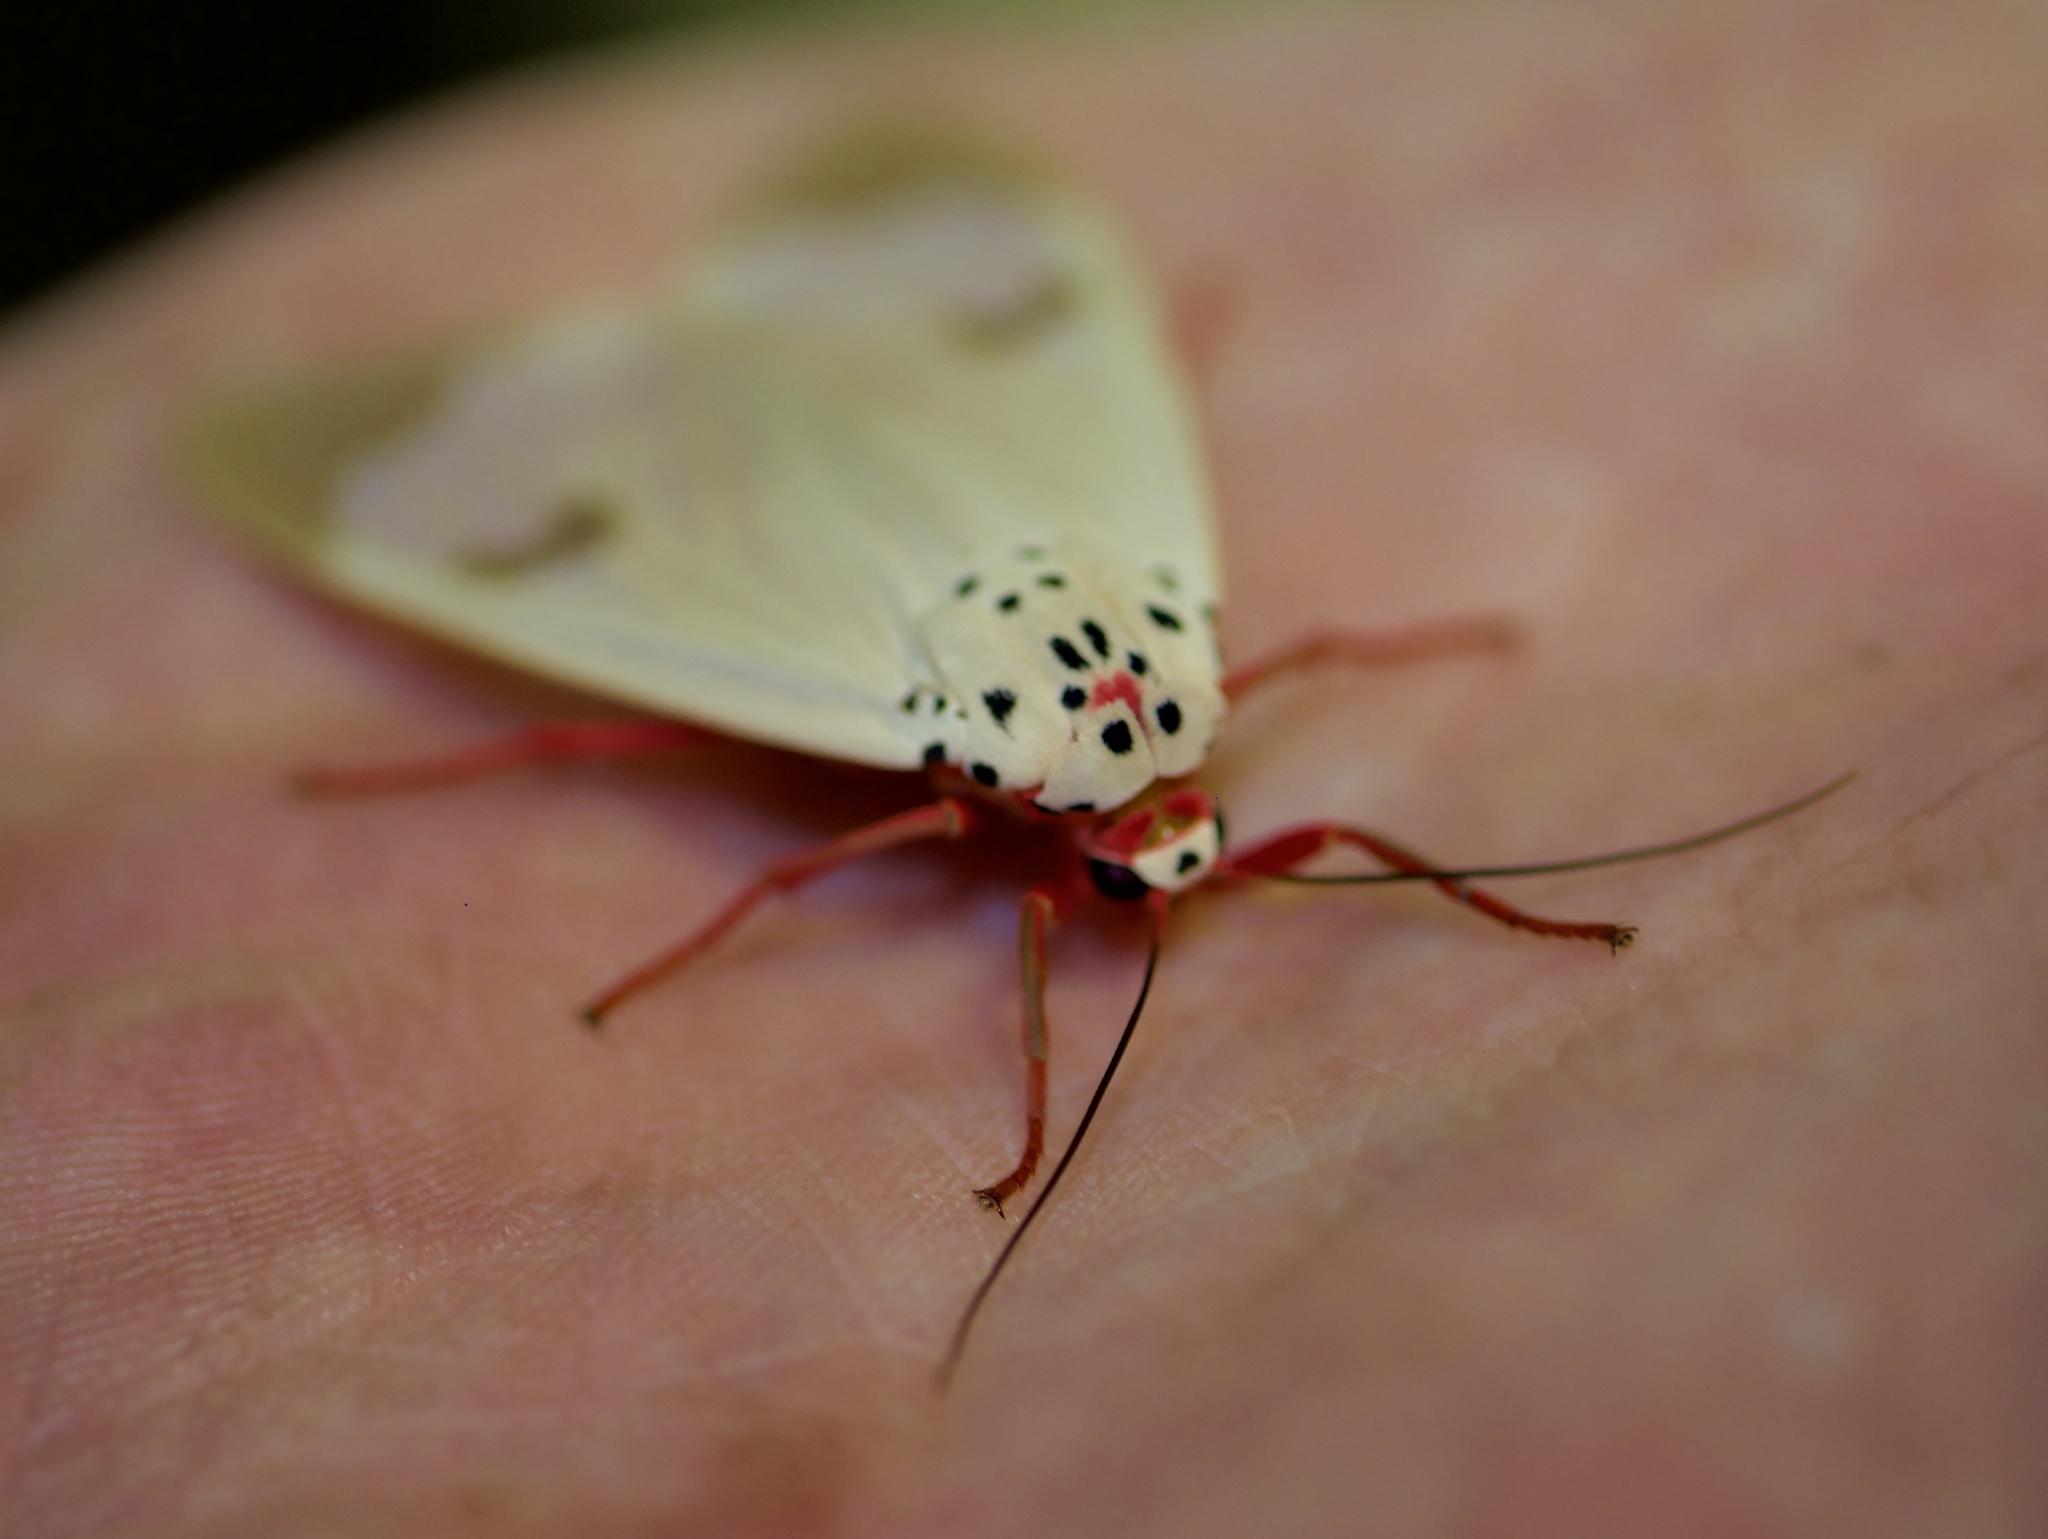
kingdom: Animalia
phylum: Arthropoda
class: Insecta
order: Lepidoptera
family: Erebidae
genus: Amerila
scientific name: Amerila astreus
